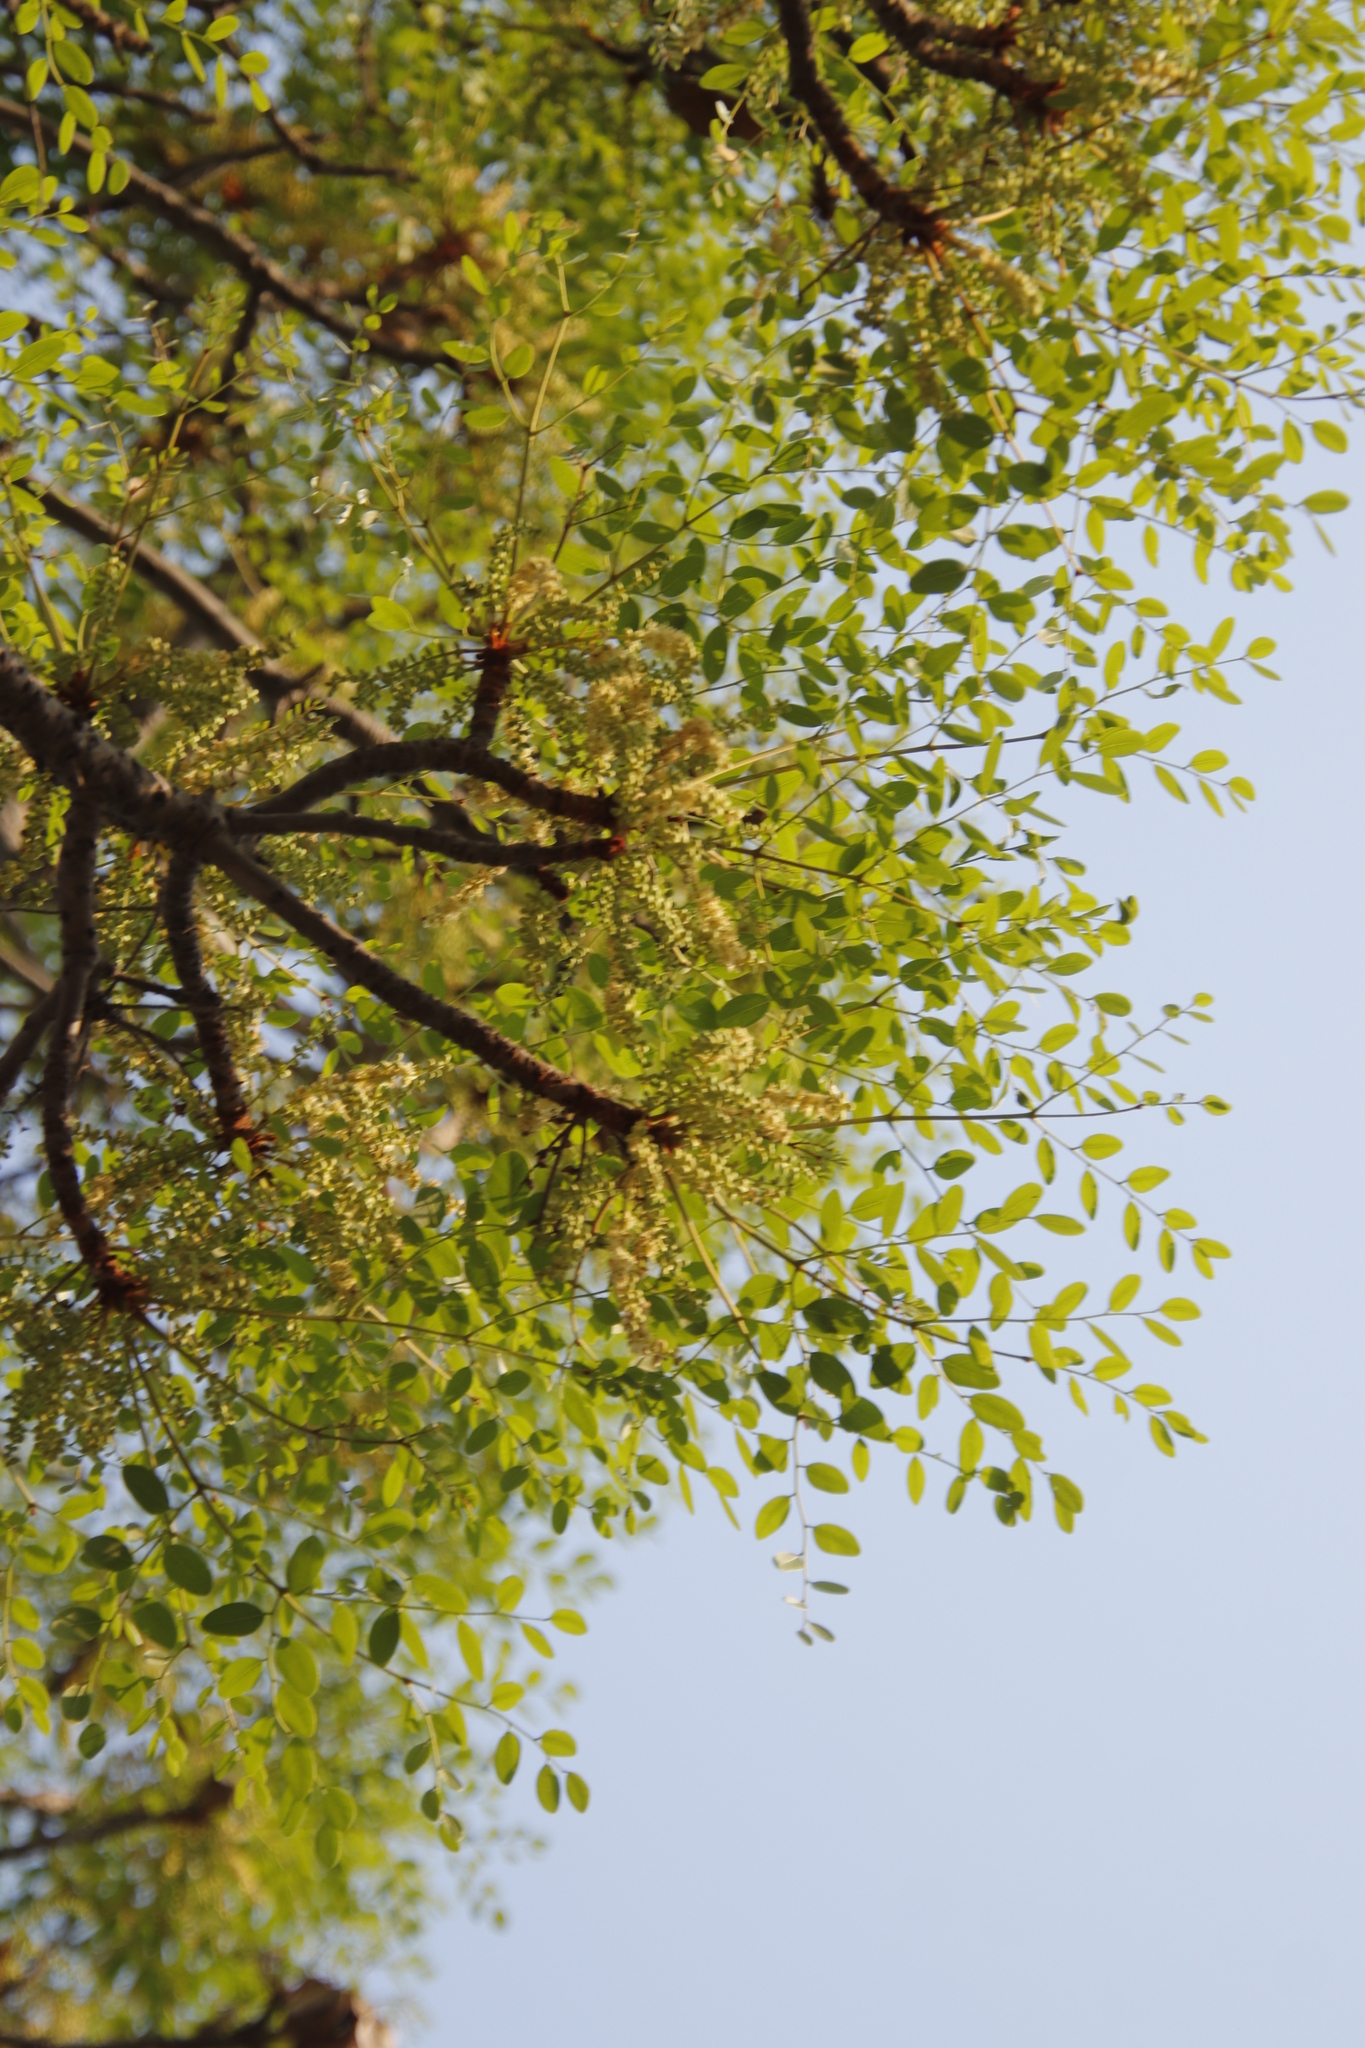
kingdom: Plantae
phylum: Tracheophyta
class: Magnoliopsida
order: Fabales
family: Fabaceae
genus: Burkea
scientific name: Burkea africana
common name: Mkalati tree
